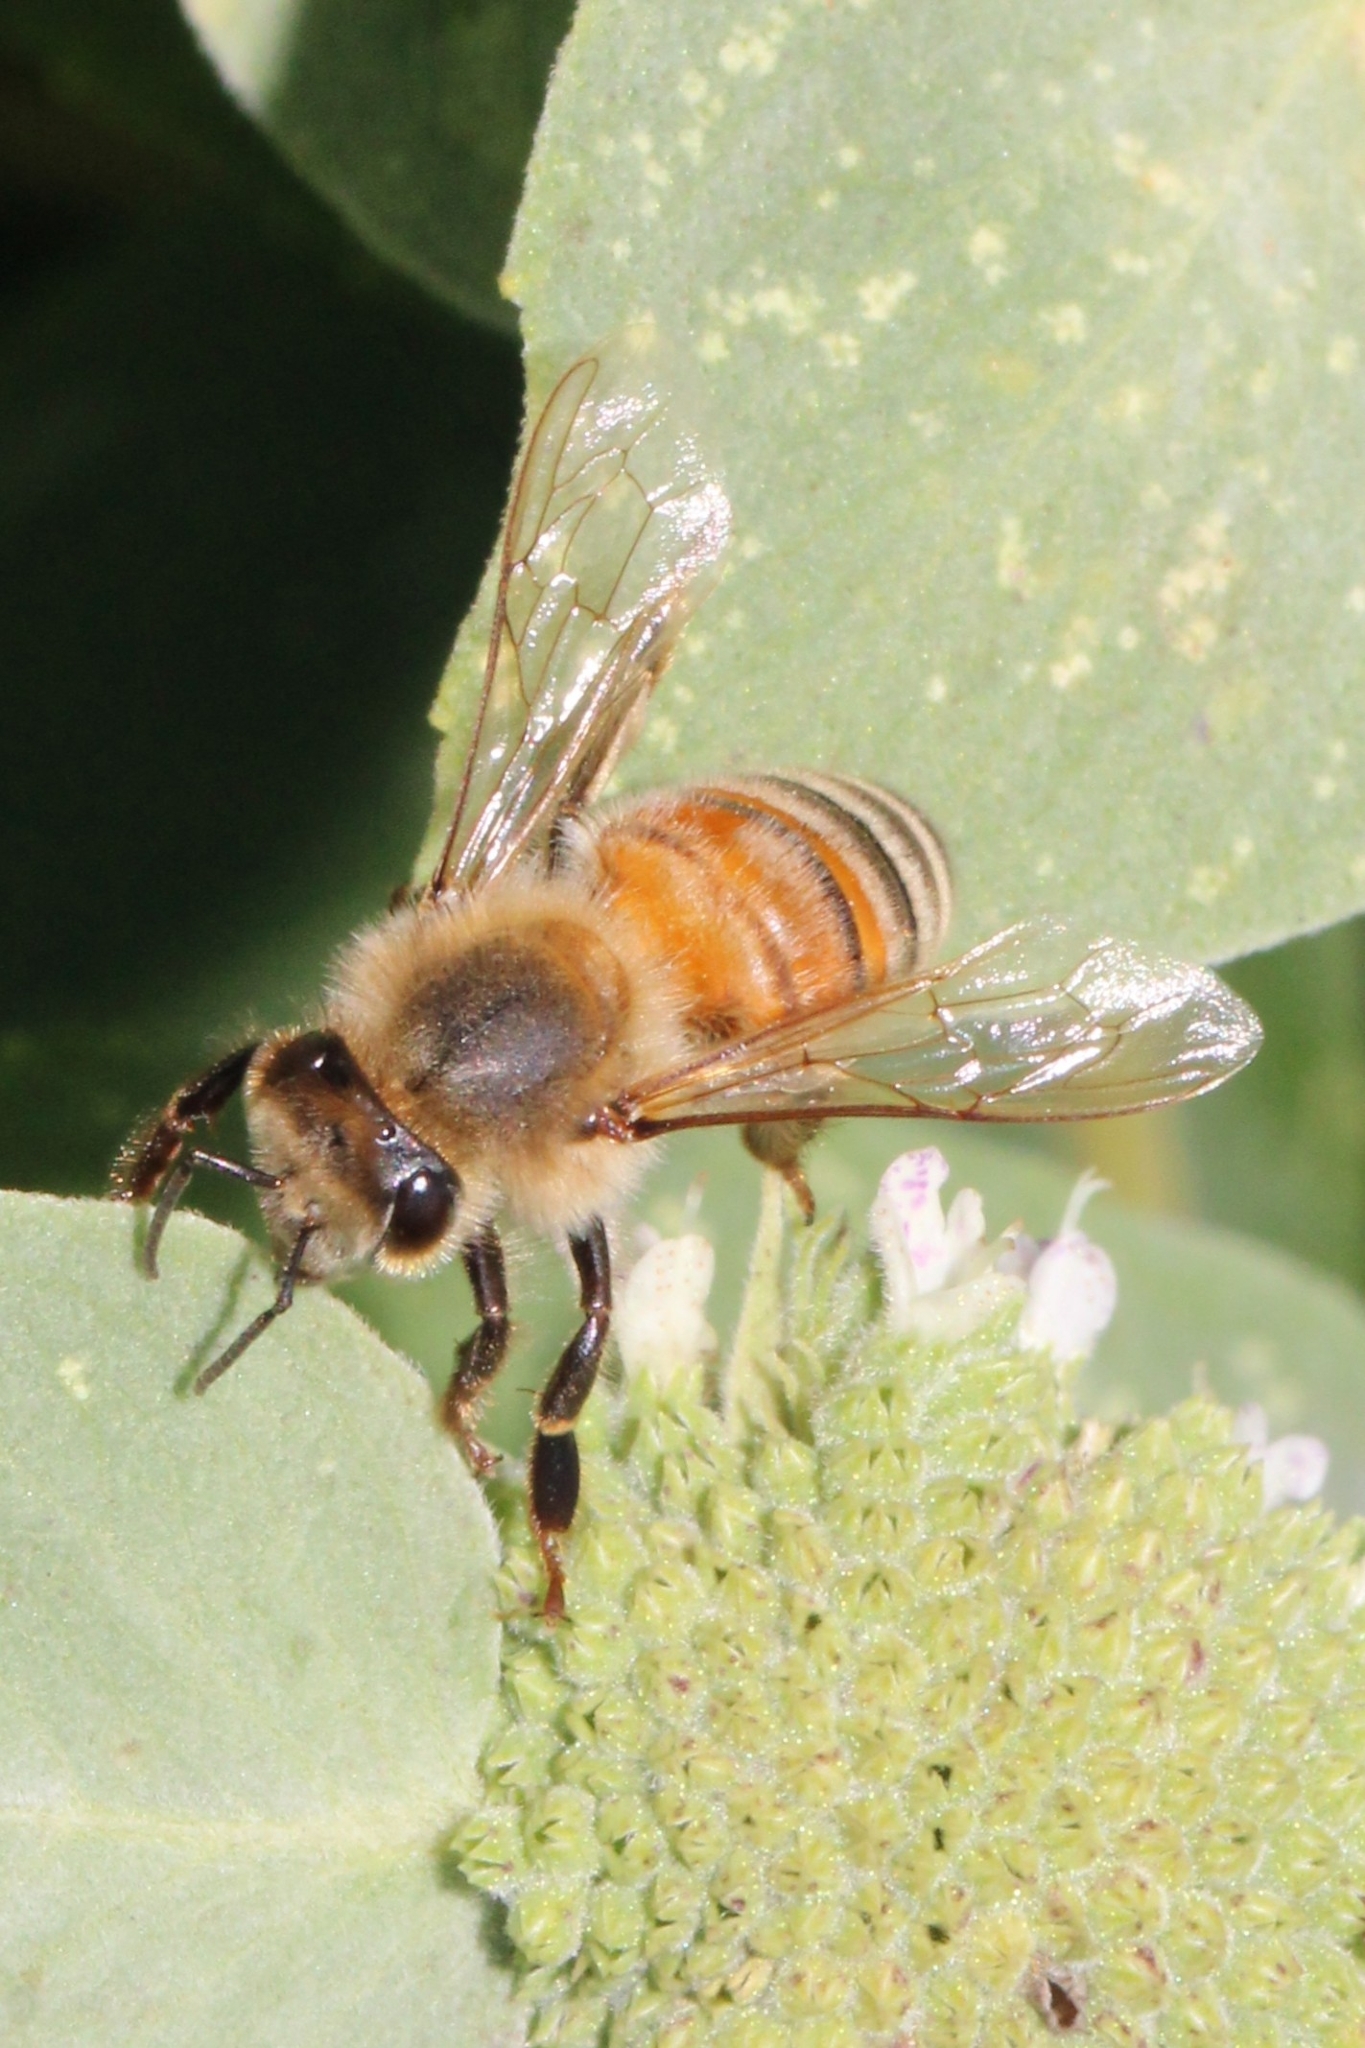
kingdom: Animalia
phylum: Arthropoda
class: Insecta
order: Hymenoptera
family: Apidae
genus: Apis
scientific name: Apis mellifera
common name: Honey bee
